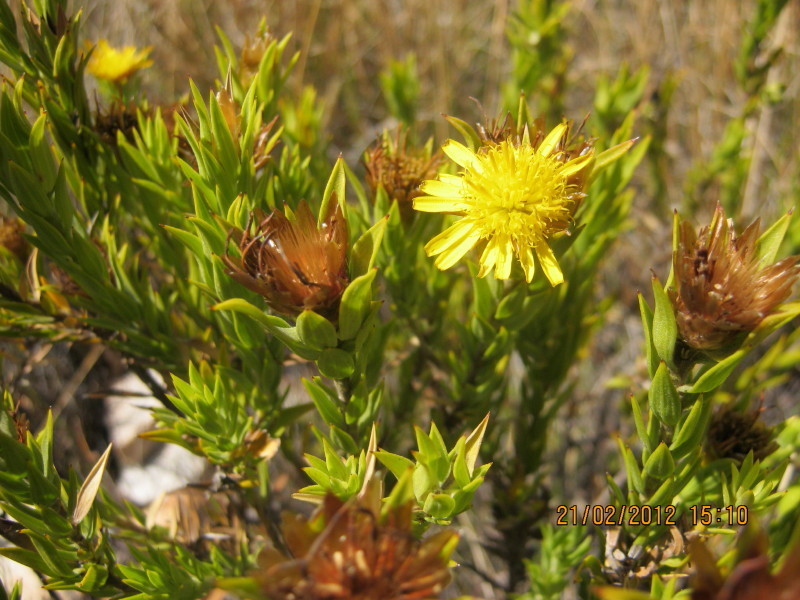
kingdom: Plantae
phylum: Tracheophyta
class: Magnoliopsida
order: Asterales
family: Asteraceae
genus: Oedera
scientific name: Oedera calycina
